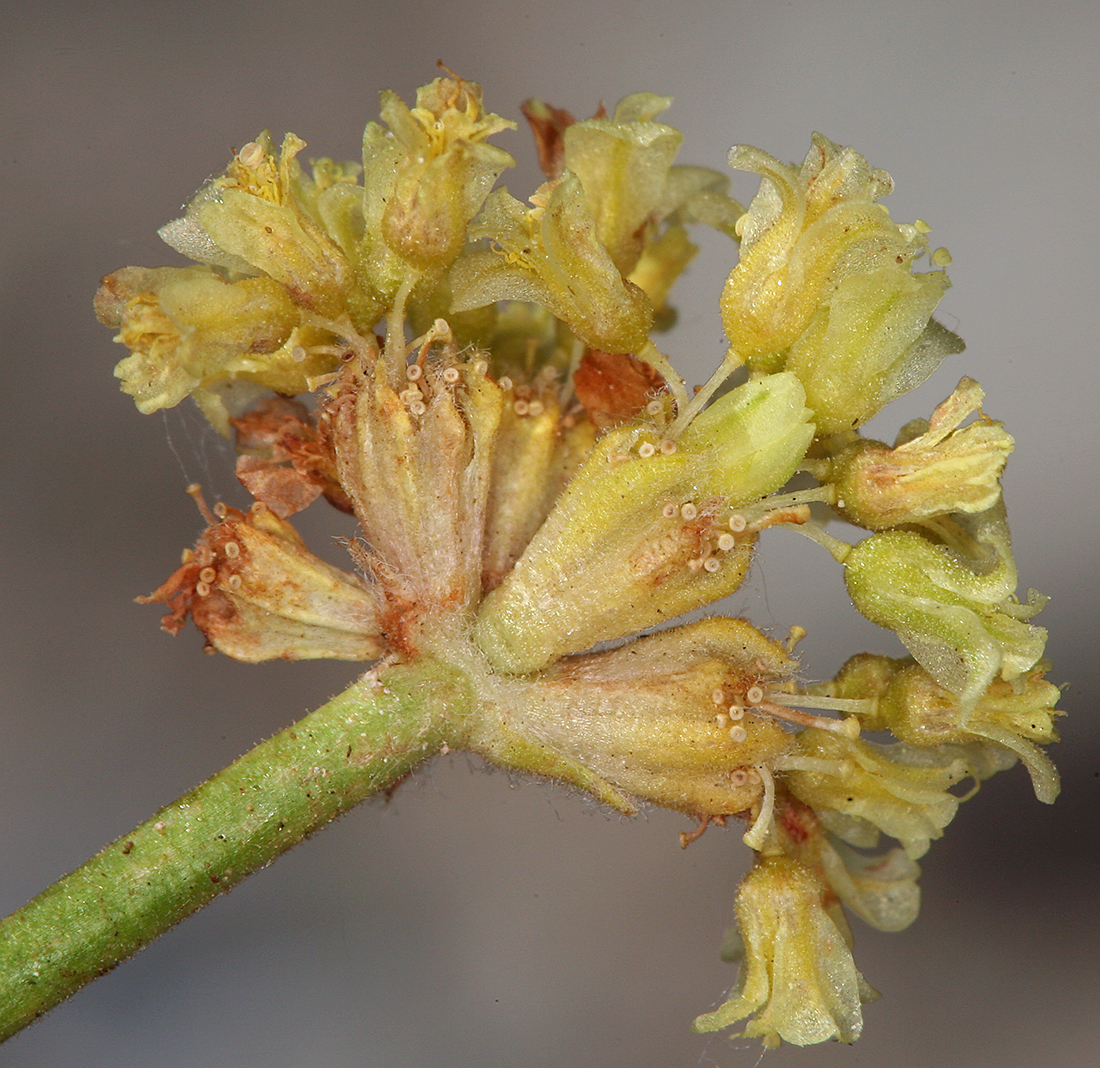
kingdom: Plantae
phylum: Tracheophyta
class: Magnoliopsida
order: Caryophyllales
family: Polygonaceae
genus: Eriogonum
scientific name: Eriogonum rosense
